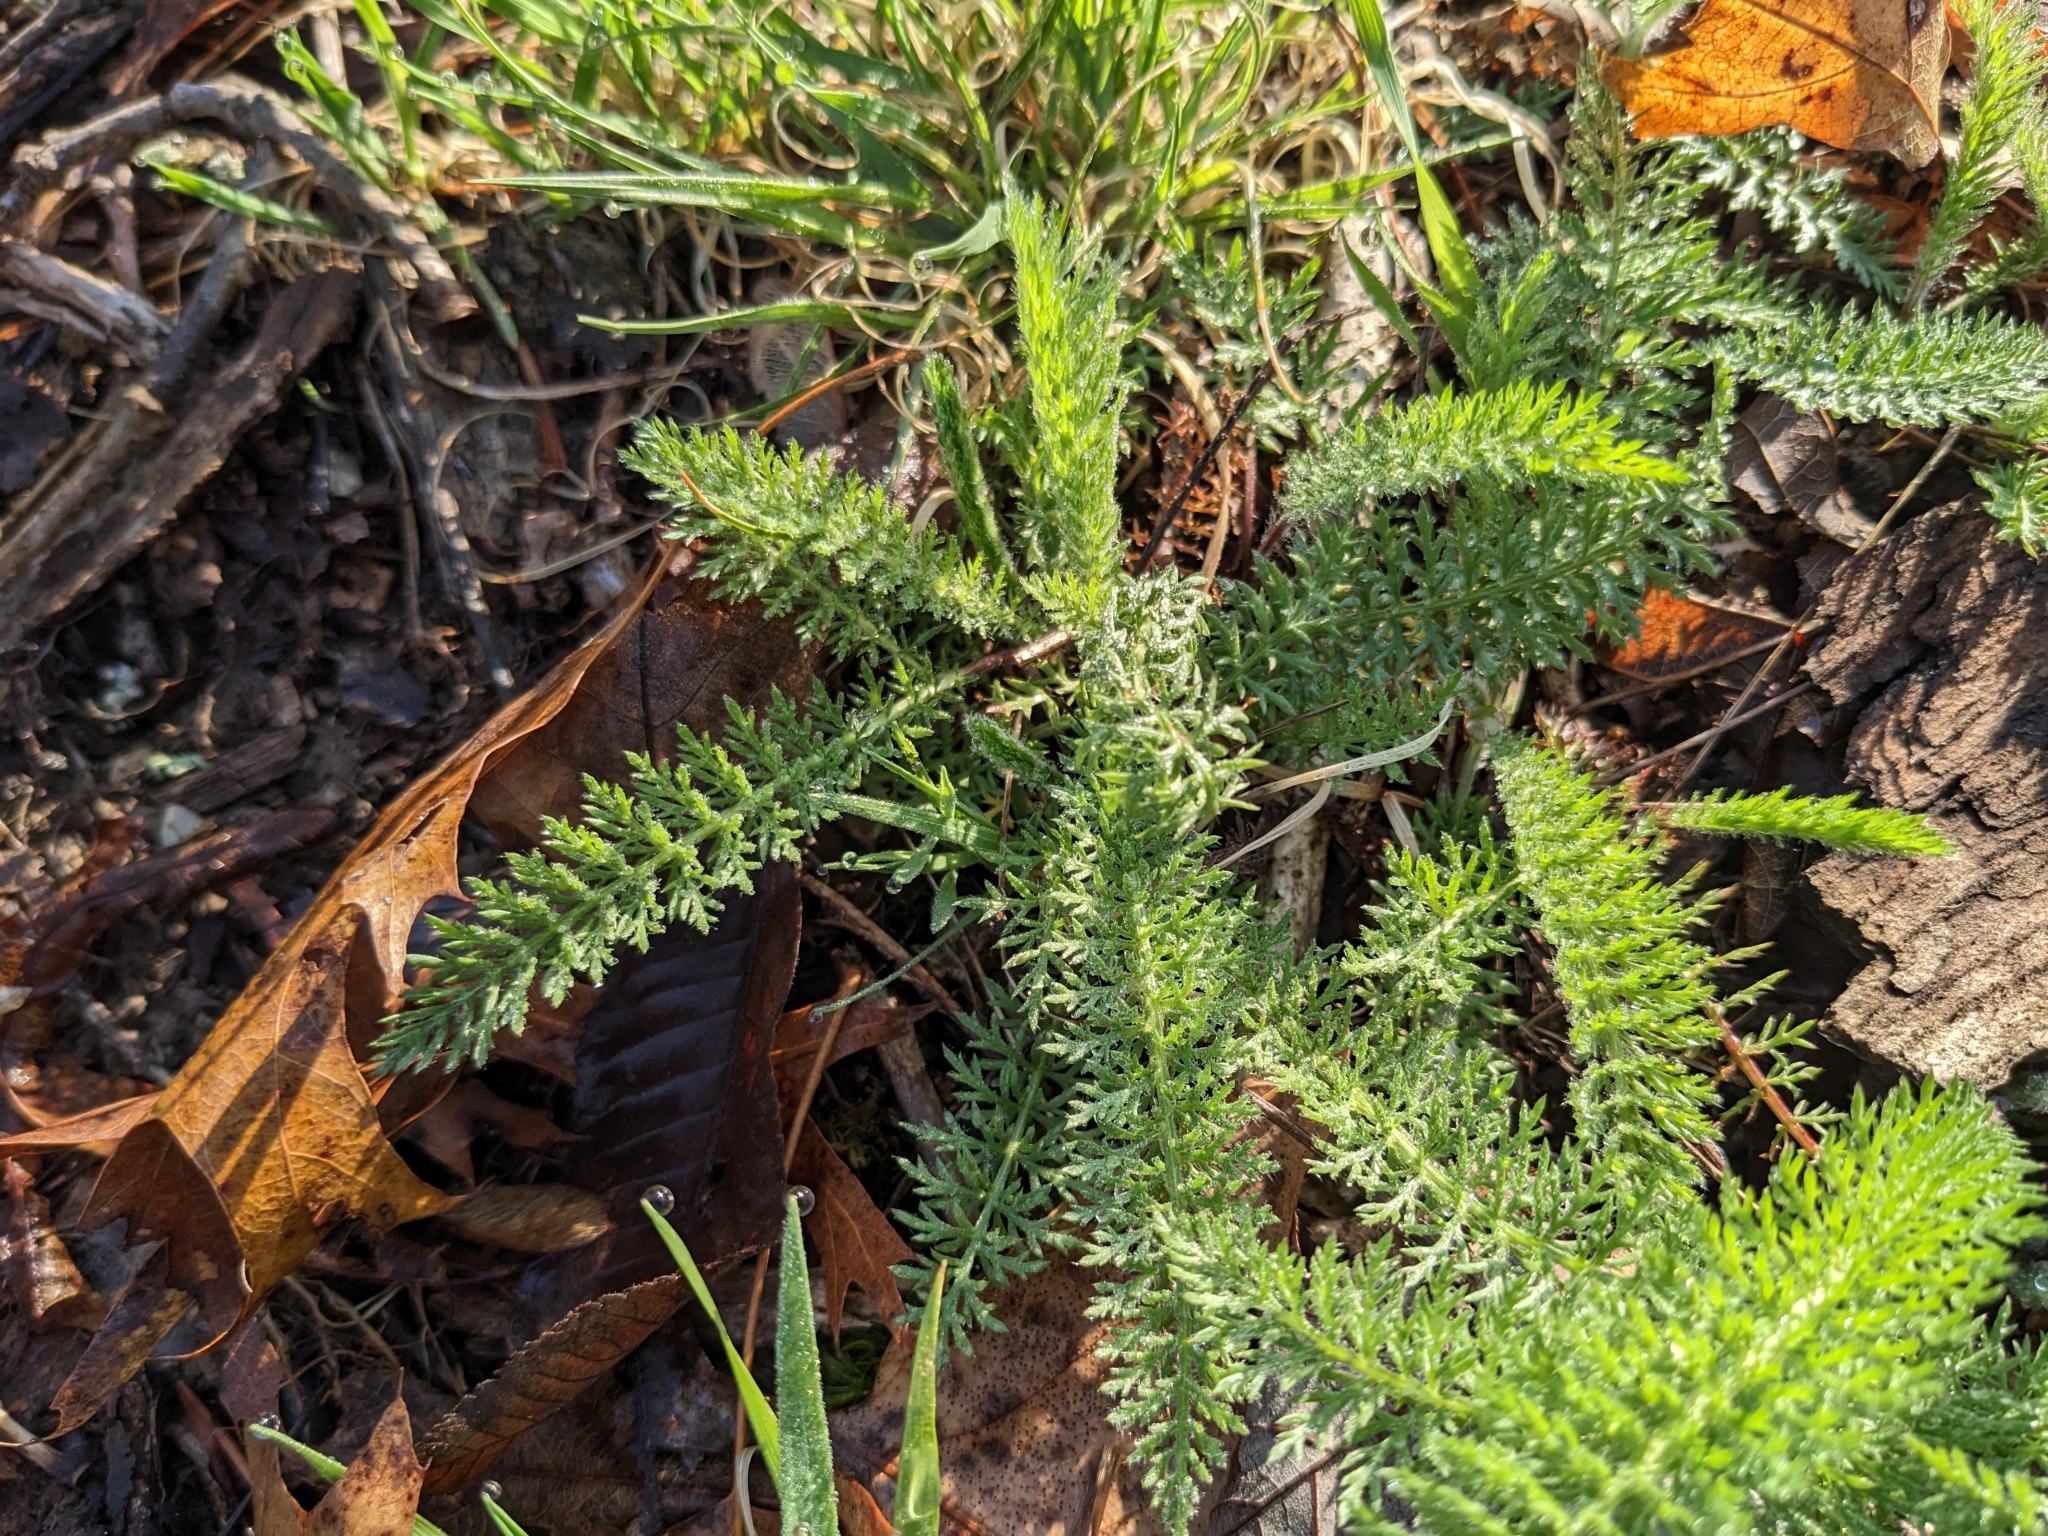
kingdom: Plantae
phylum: Tracheophyta
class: Magnoliopsida
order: Asterales
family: Asteraceae
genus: Achillea
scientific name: Achillea millefolium
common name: Yarrow
